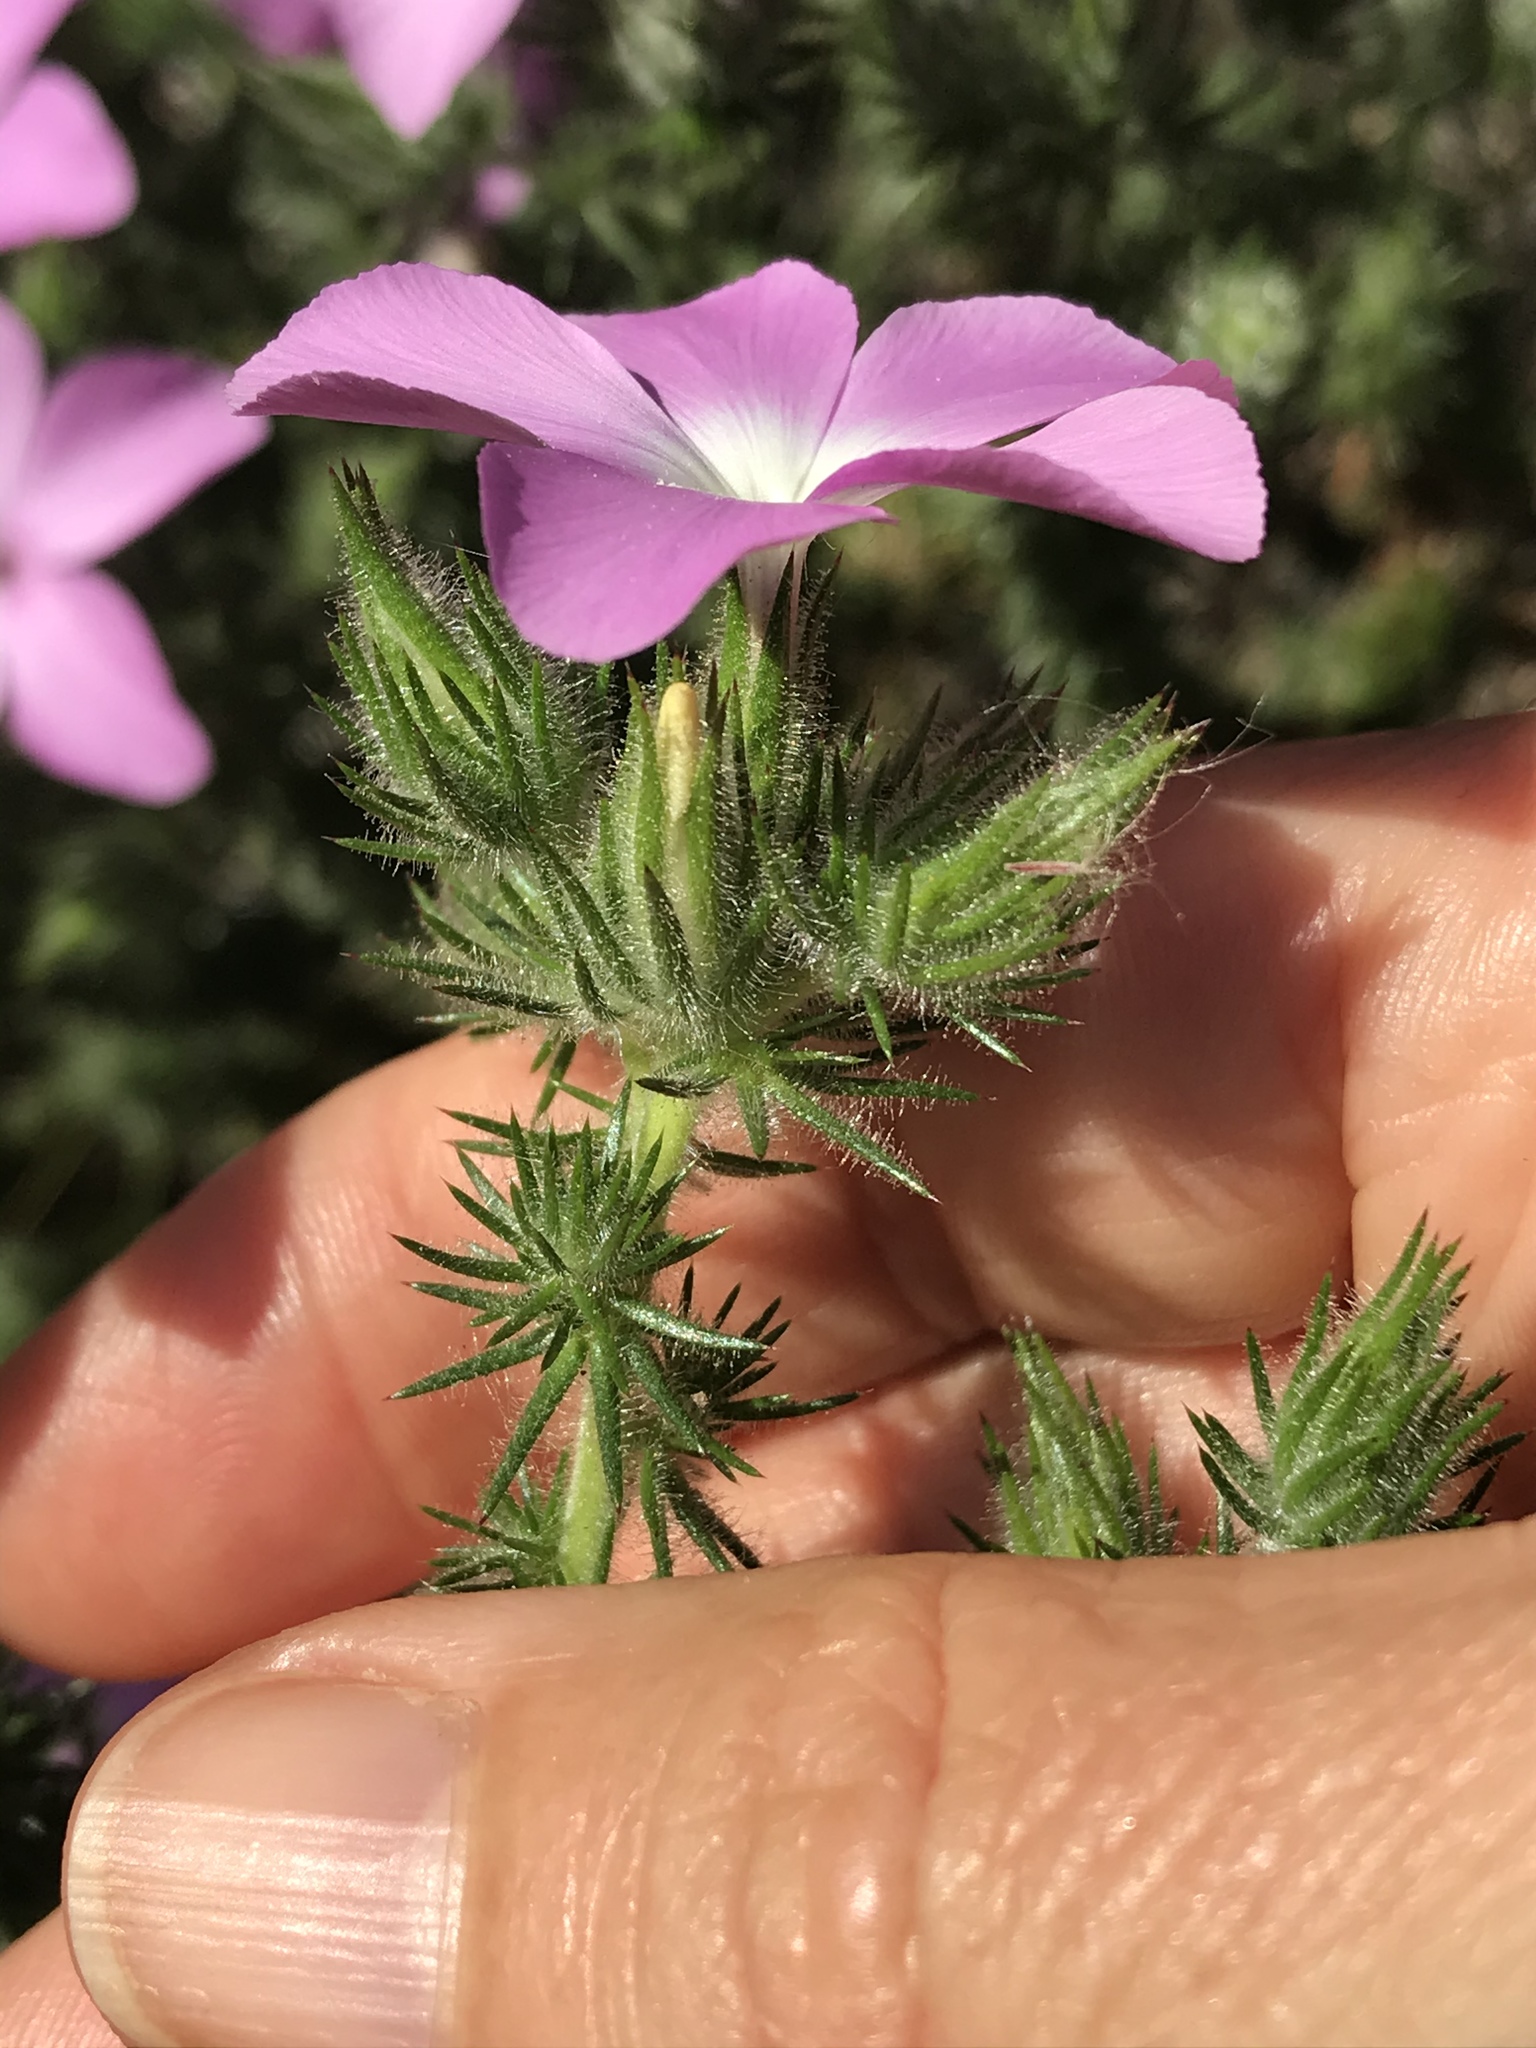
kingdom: Plantae
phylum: Tracheophyta
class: Magnoliopsida
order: Ericales
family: Polemoniaceae
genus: Linanthus
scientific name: Linanthus californicus
